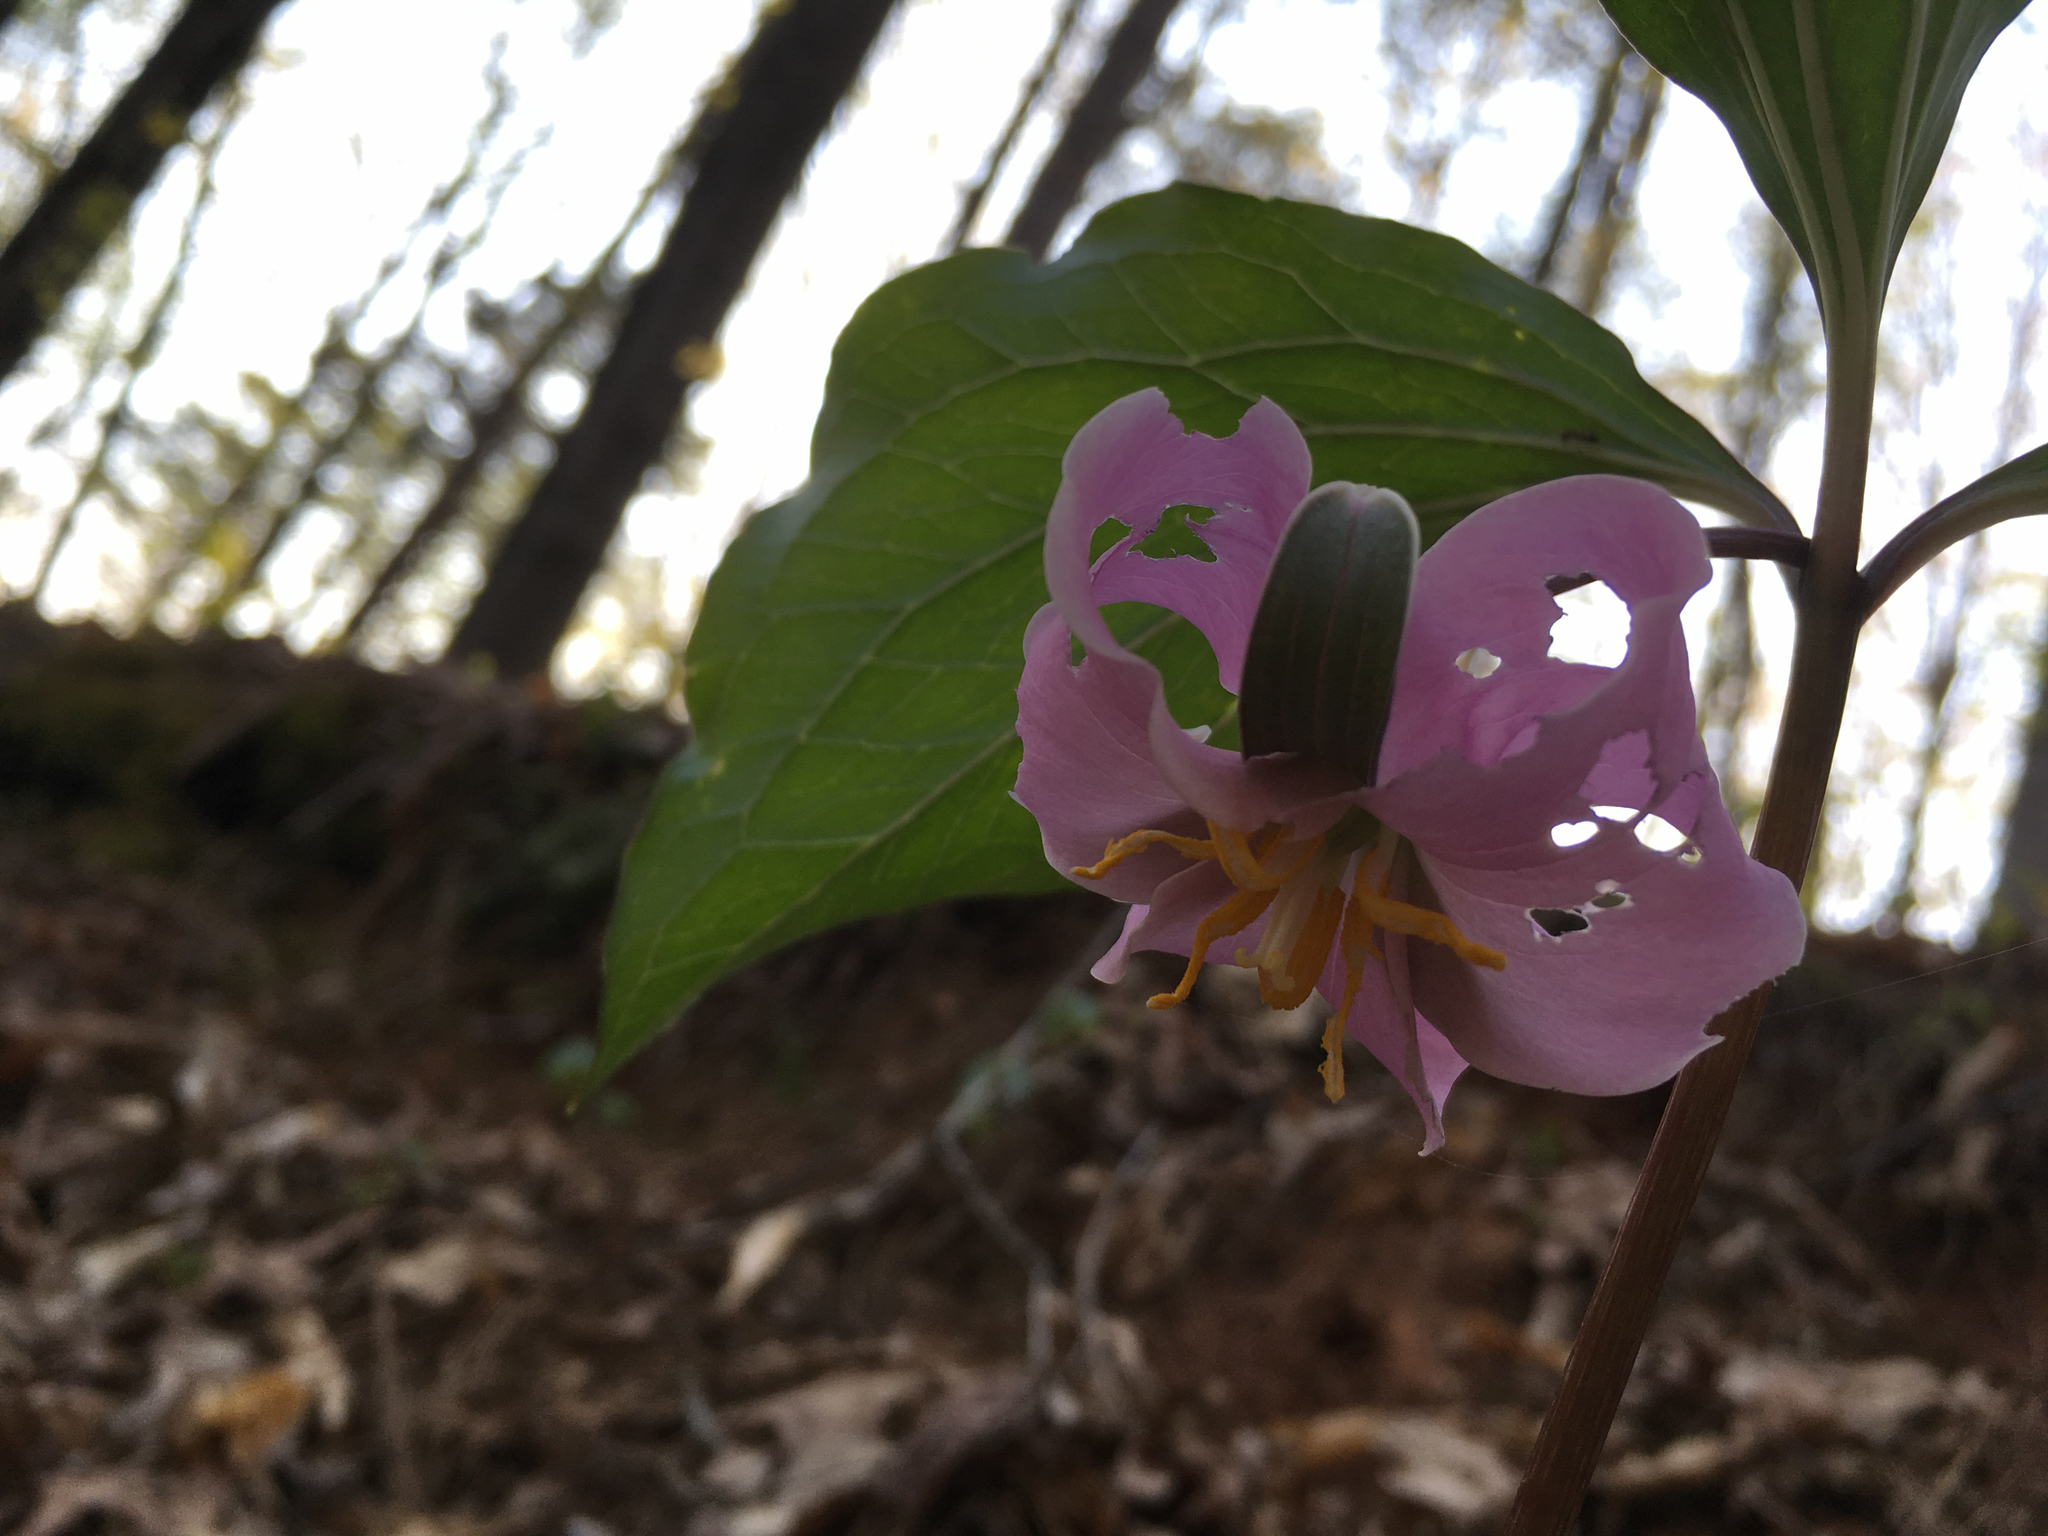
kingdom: Plantae
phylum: Tracheophyta
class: Liliopsida
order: Liliales
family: Melanthiaceae
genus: Trillium
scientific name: Trillium catesbaei
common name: Bashful trillium
